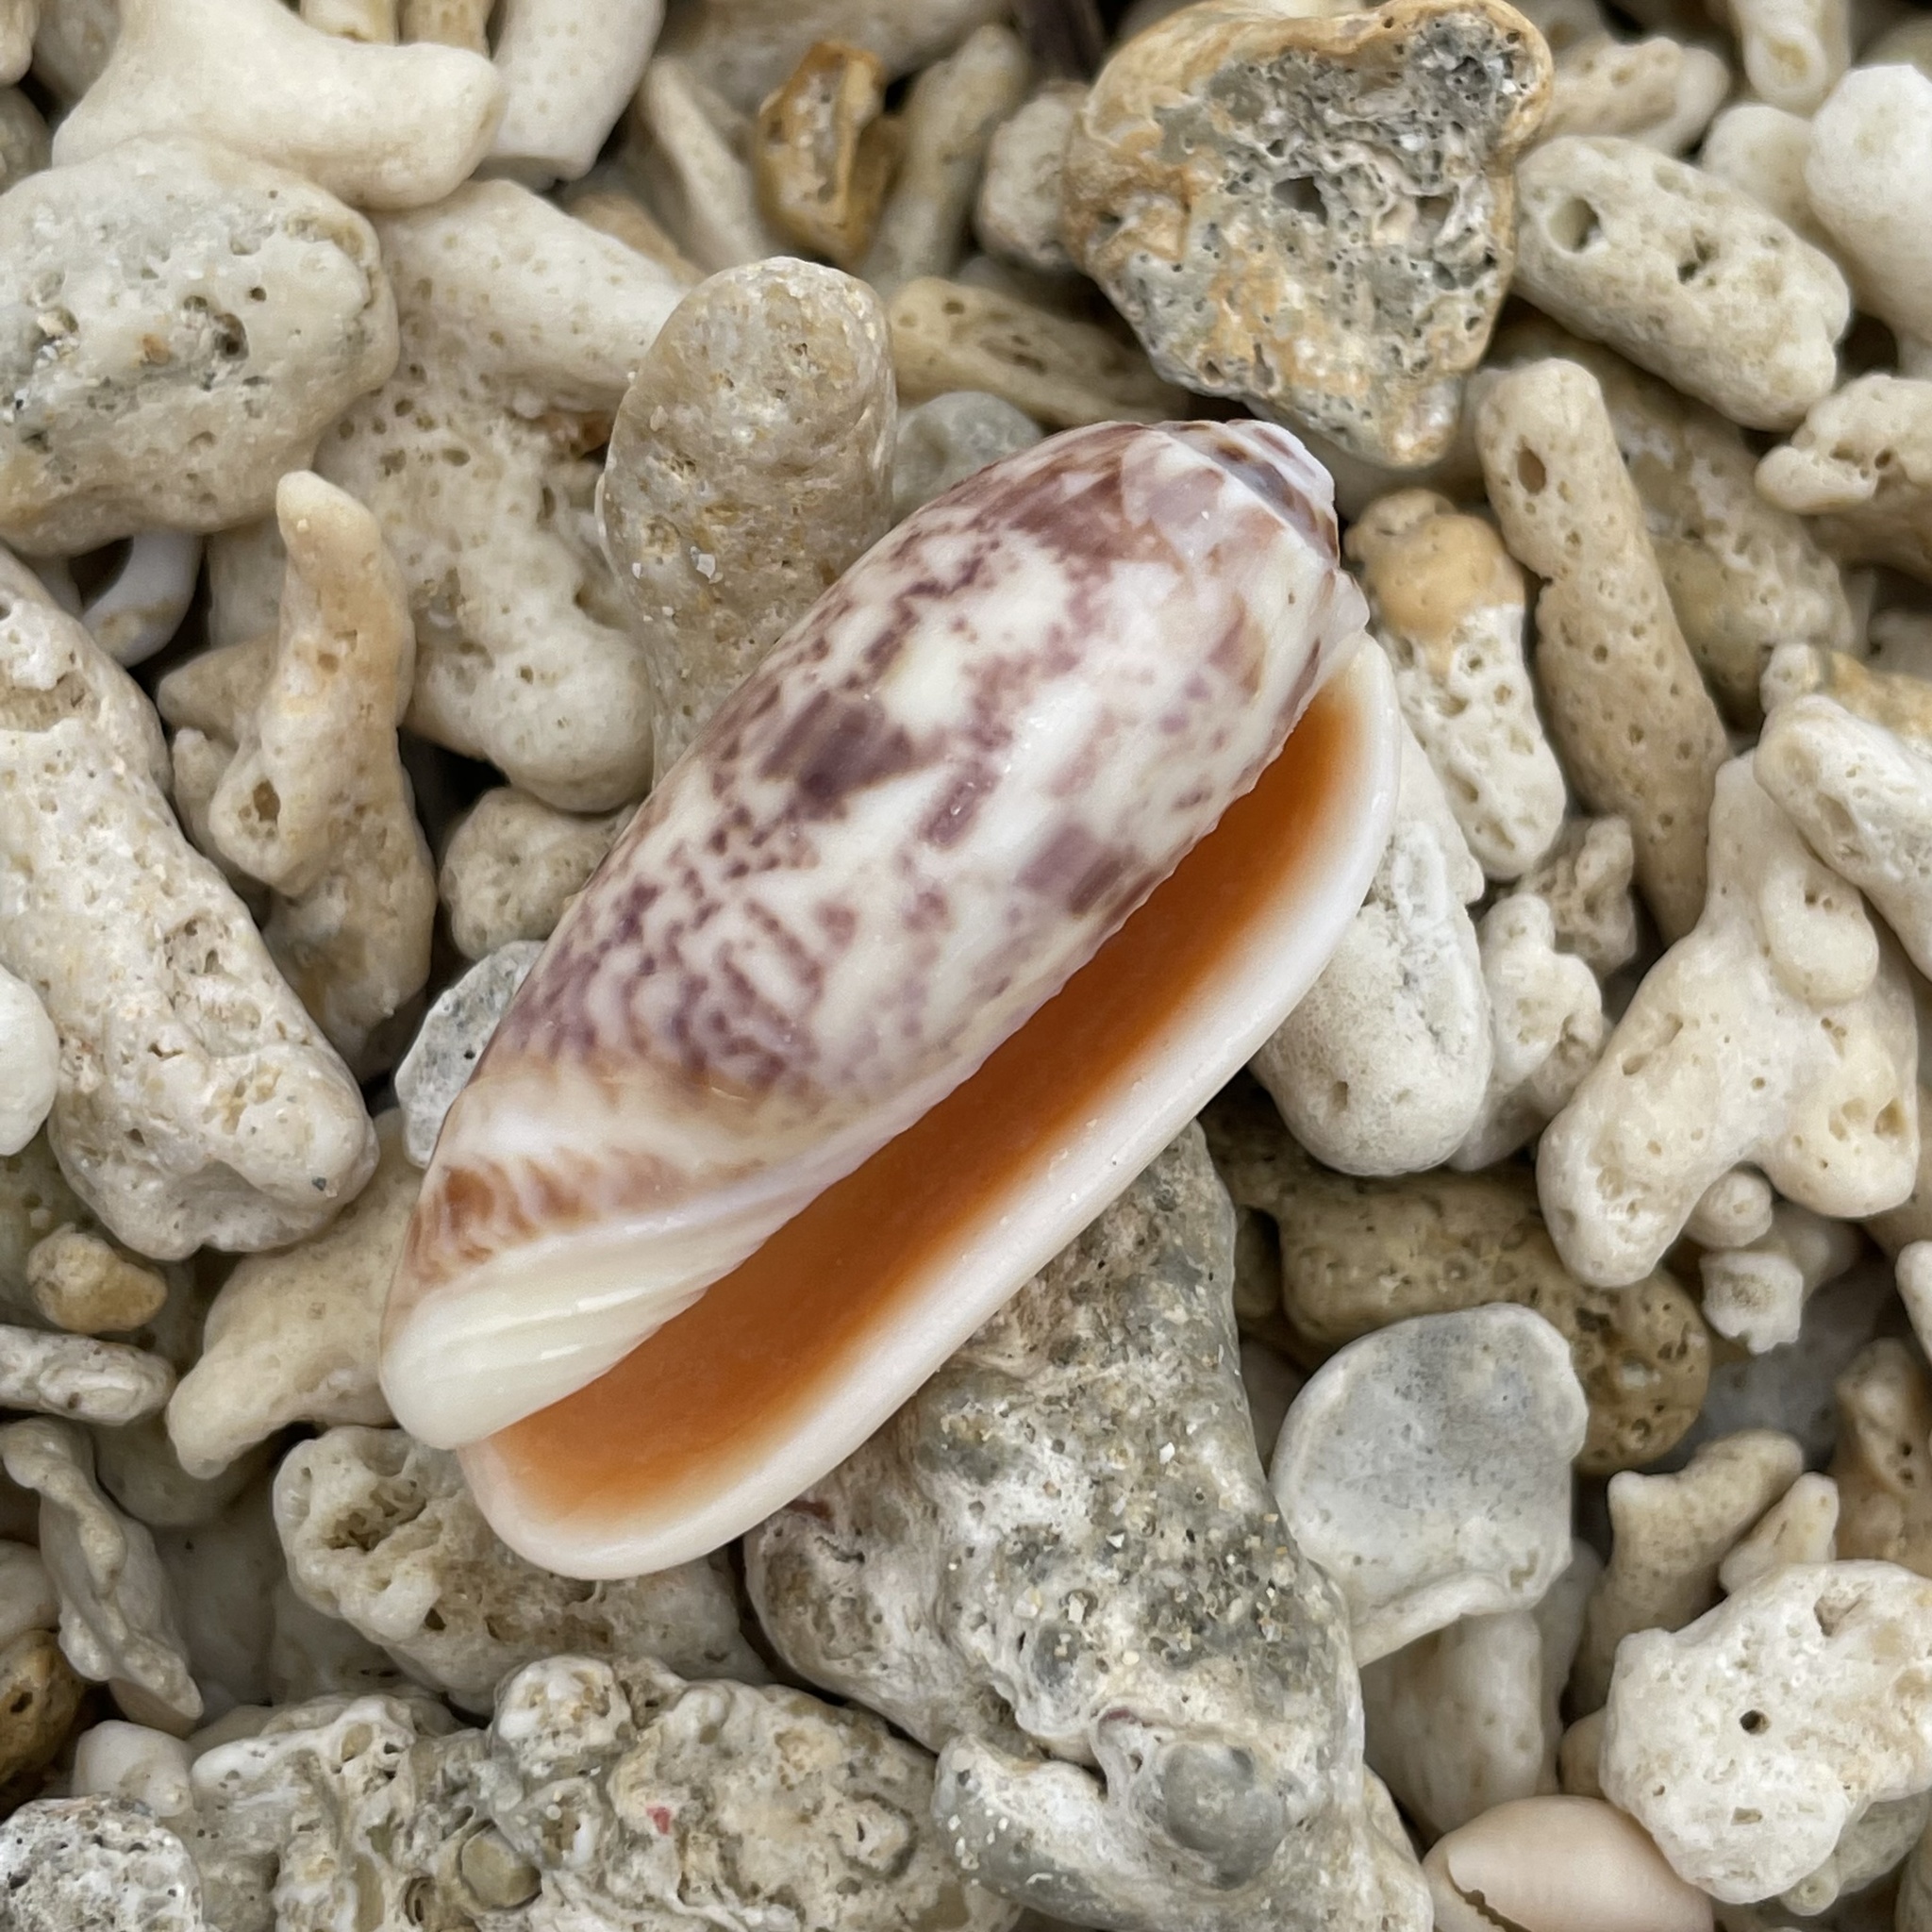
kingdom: Animalia
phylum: Mollusca
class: Gastropoda
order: Neogastropoda
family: Olividae
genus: Oliva
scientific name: Oliva miniacea
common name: Pacific common olive
